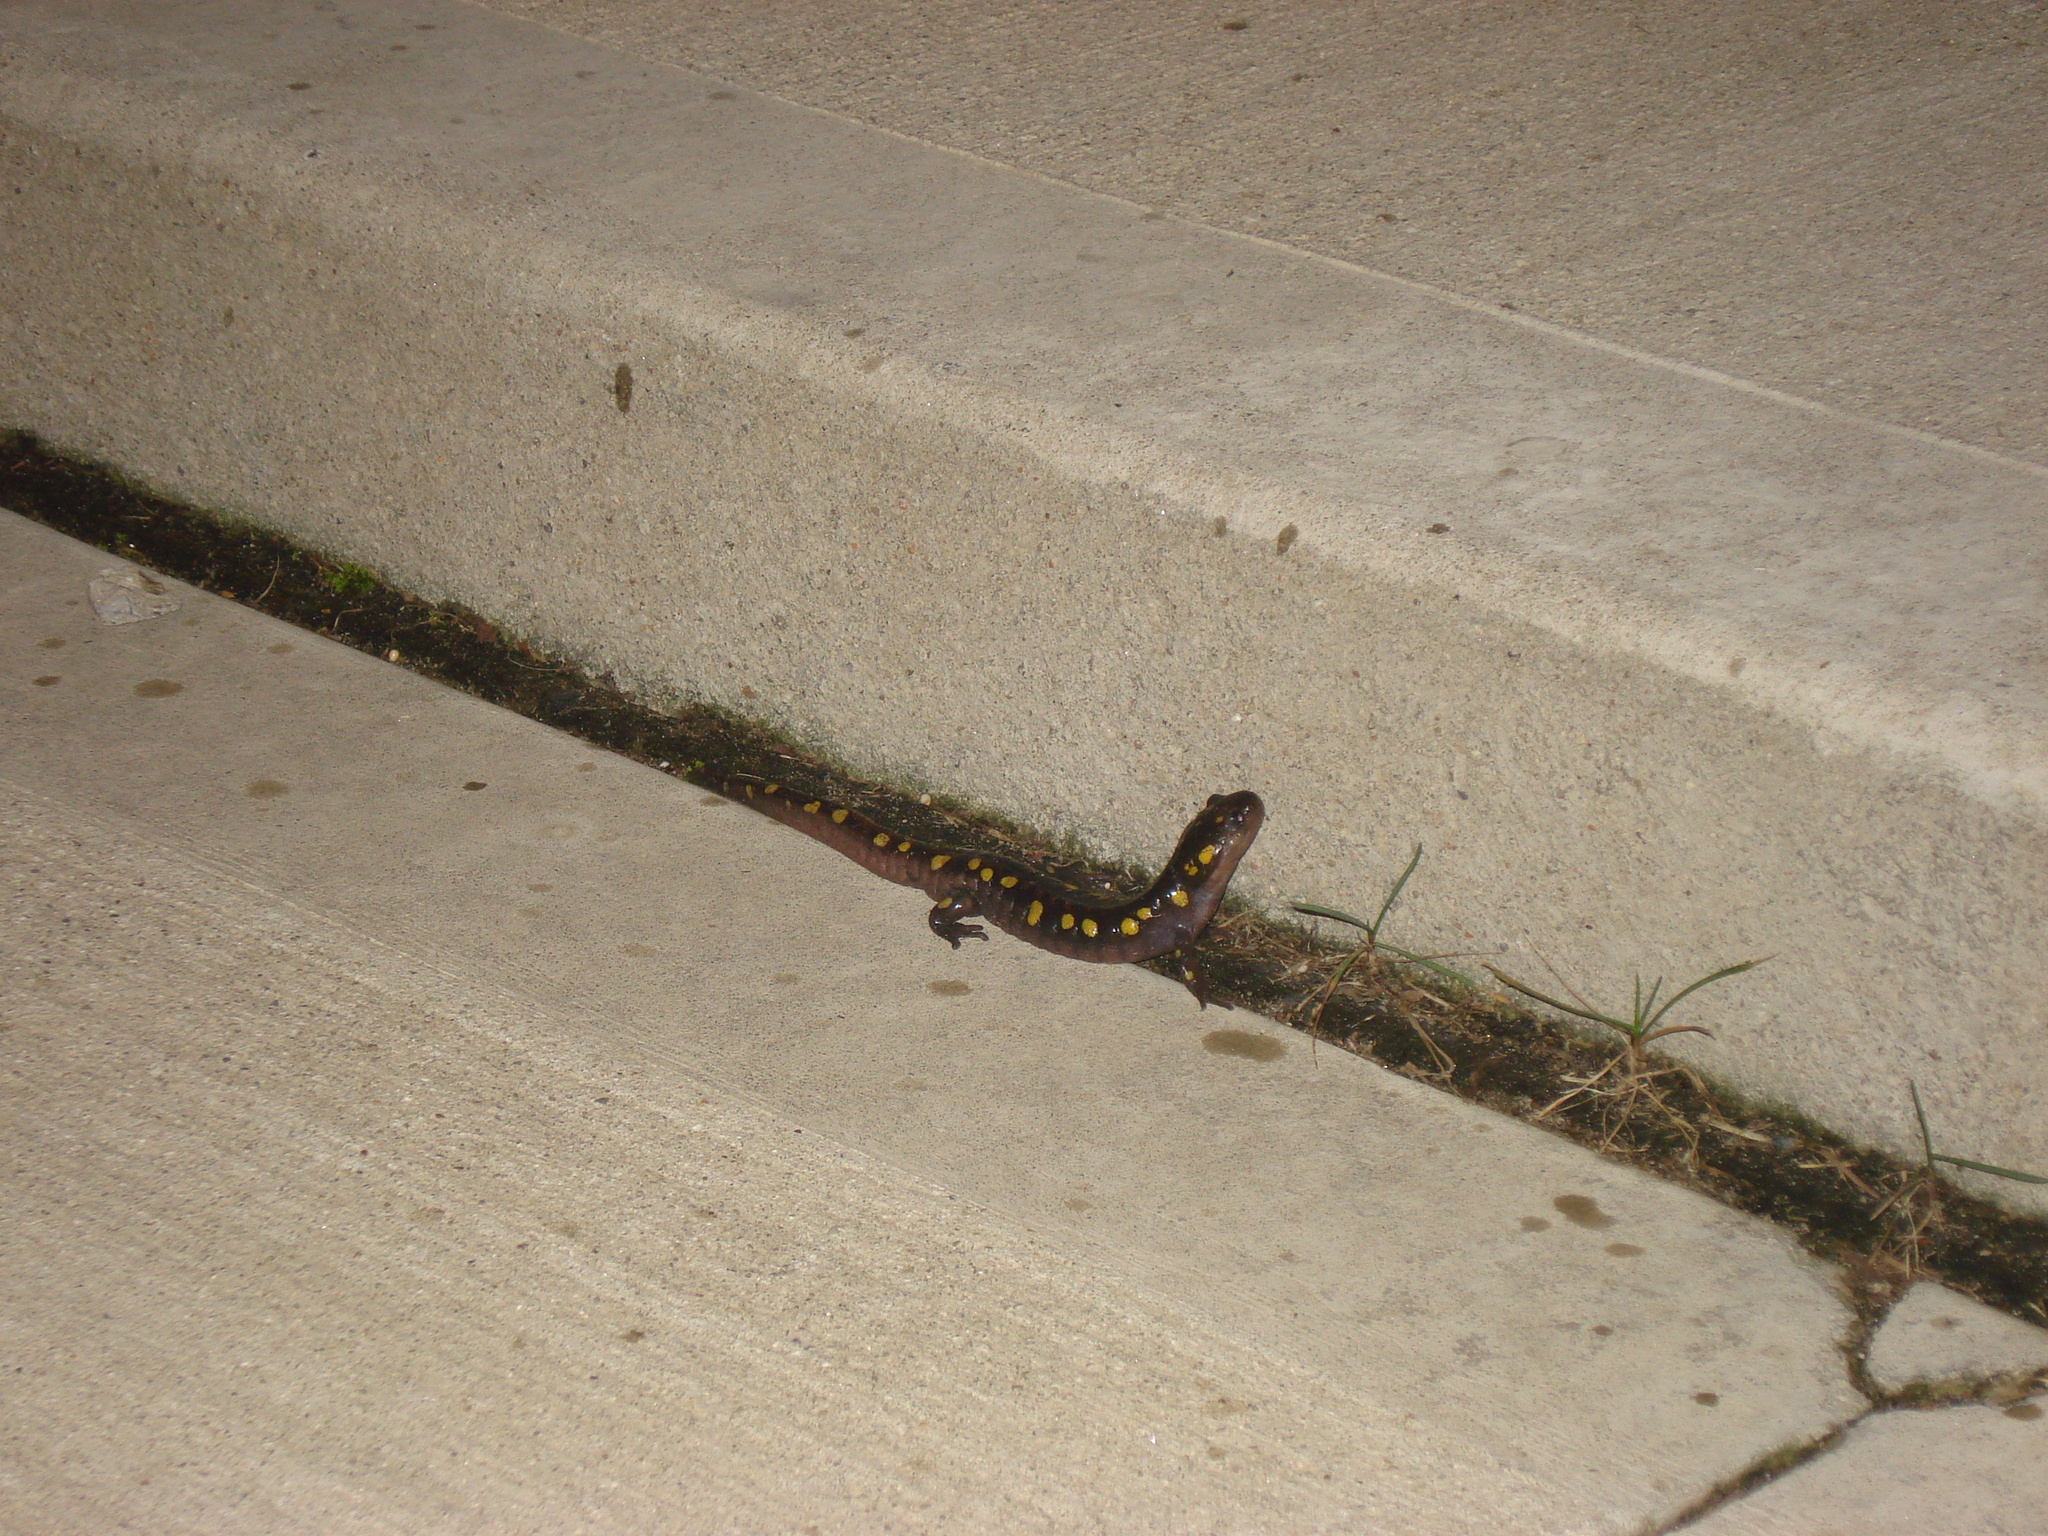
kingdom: Animalia
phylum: Chordata
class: Amphibia
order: Caudata
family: Ambystomatidae
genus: Ambystoma
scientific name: Ambystoma maculatum
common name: Spotted salamander
